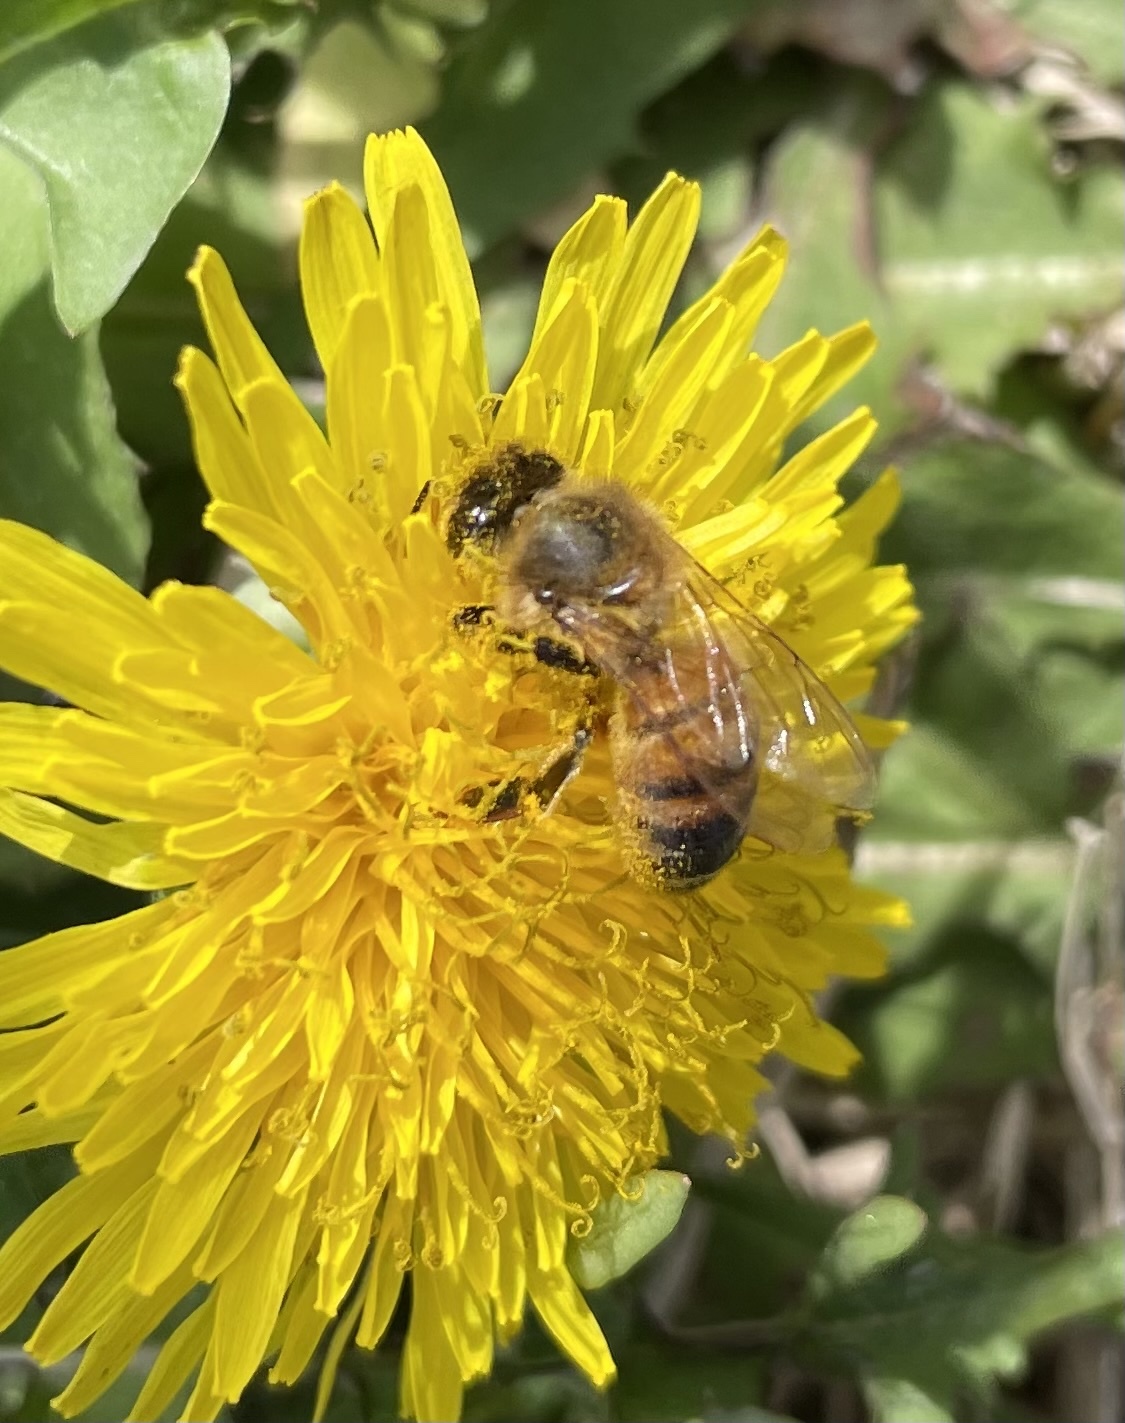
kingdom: Animalia
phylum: Arthropoda
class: Insecta
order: Hymenoptera
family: Apidae
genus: Apis
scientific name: Apis mellifera
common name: Honey bee
